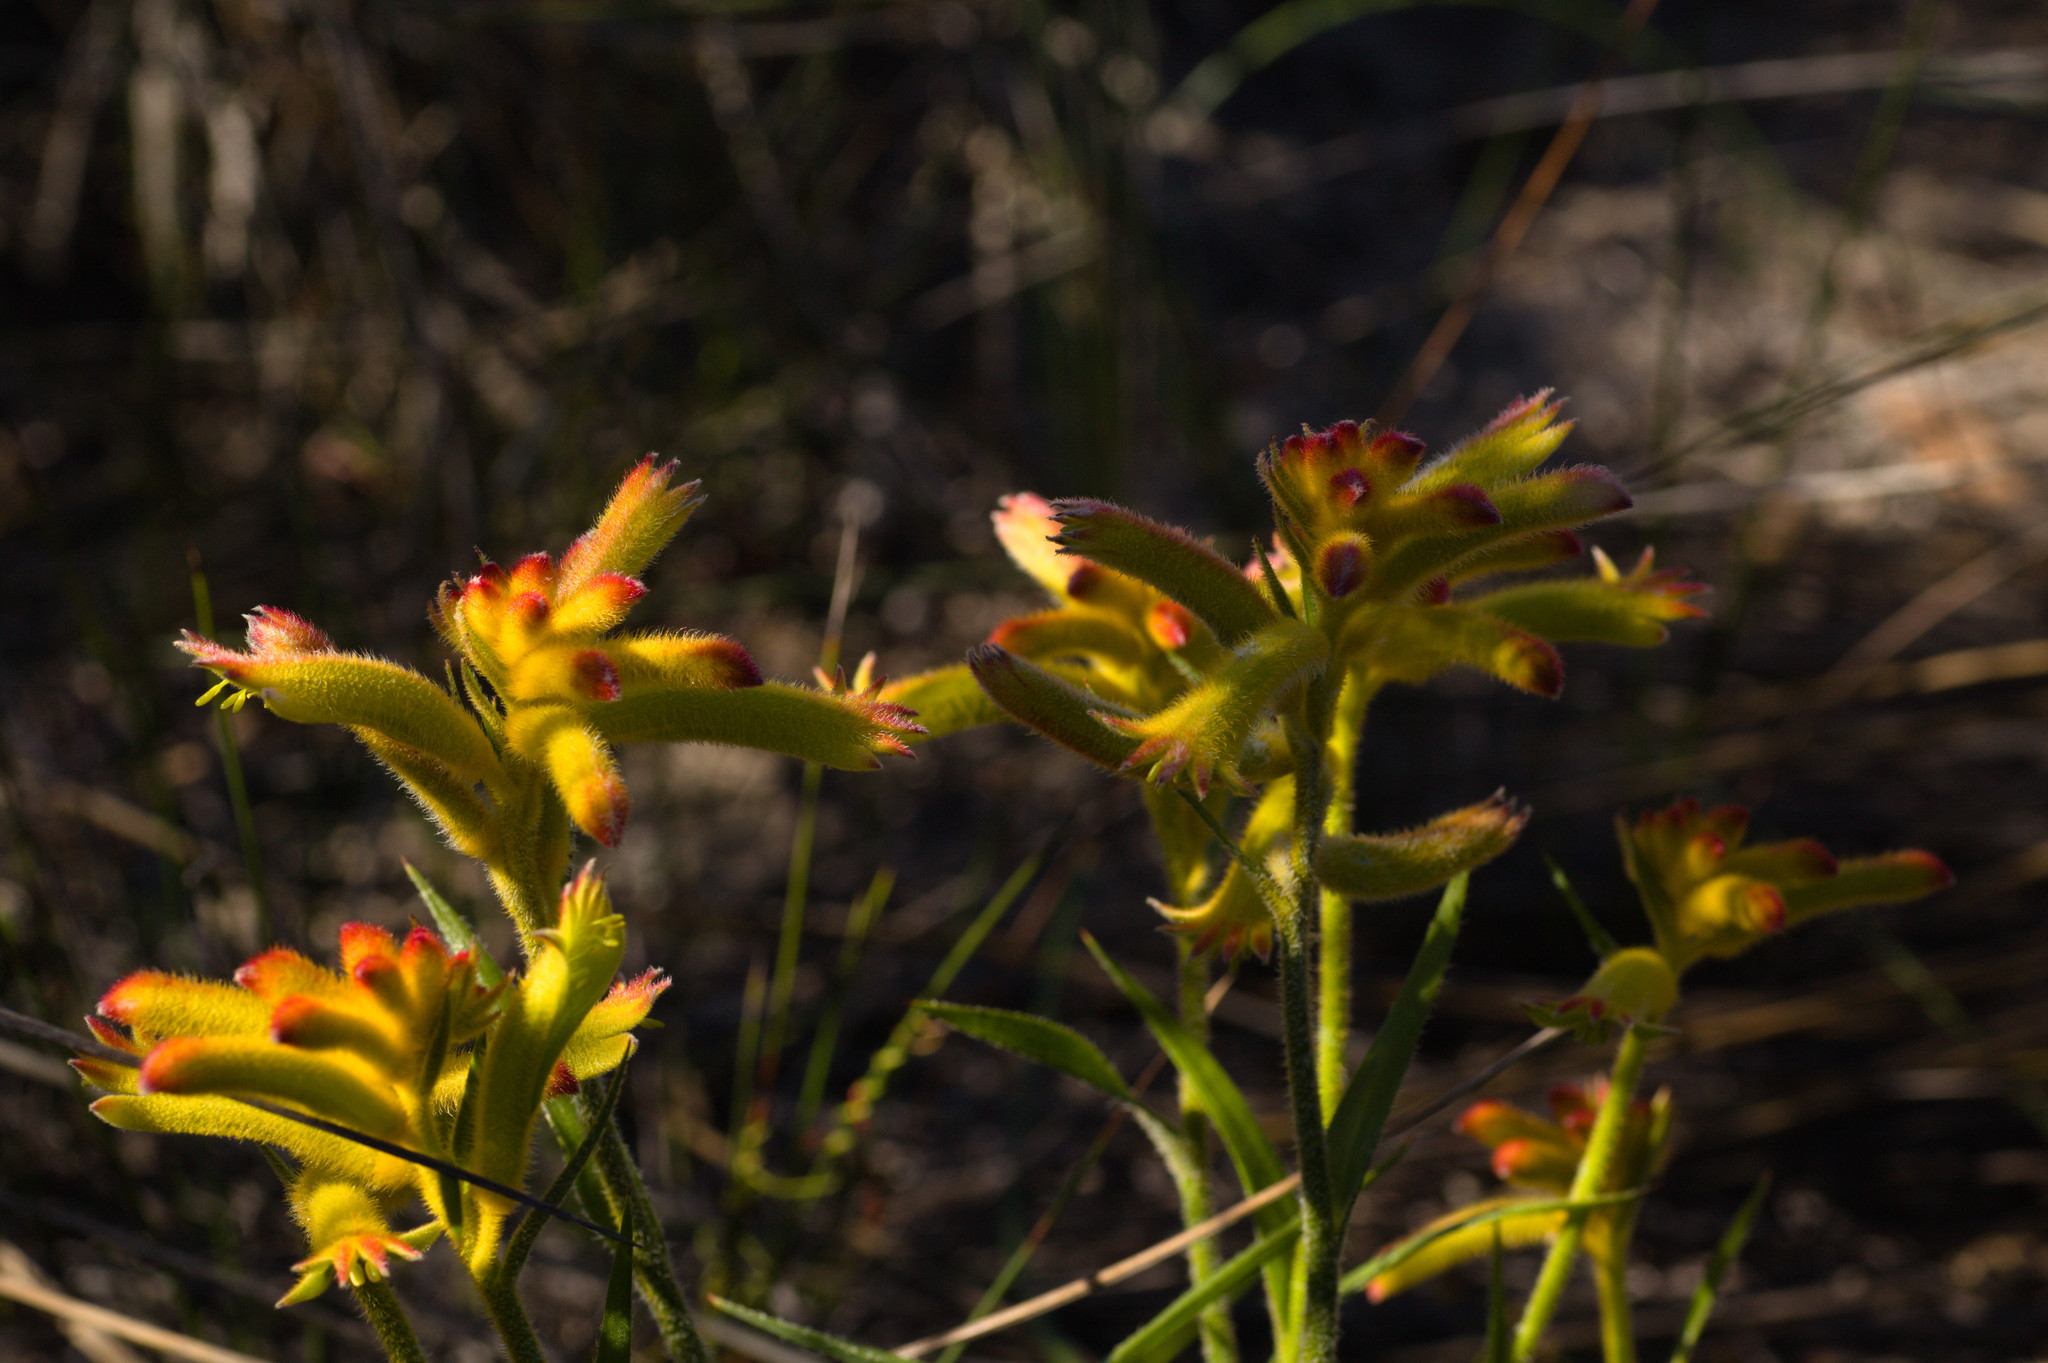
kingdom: Plantae
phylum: Tracheophyta
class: Liliopsida
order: Commelinales
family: Haemodoraceae
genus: Anigozanthos
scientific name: Anigozanthos humilis
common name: Cat's-paw
